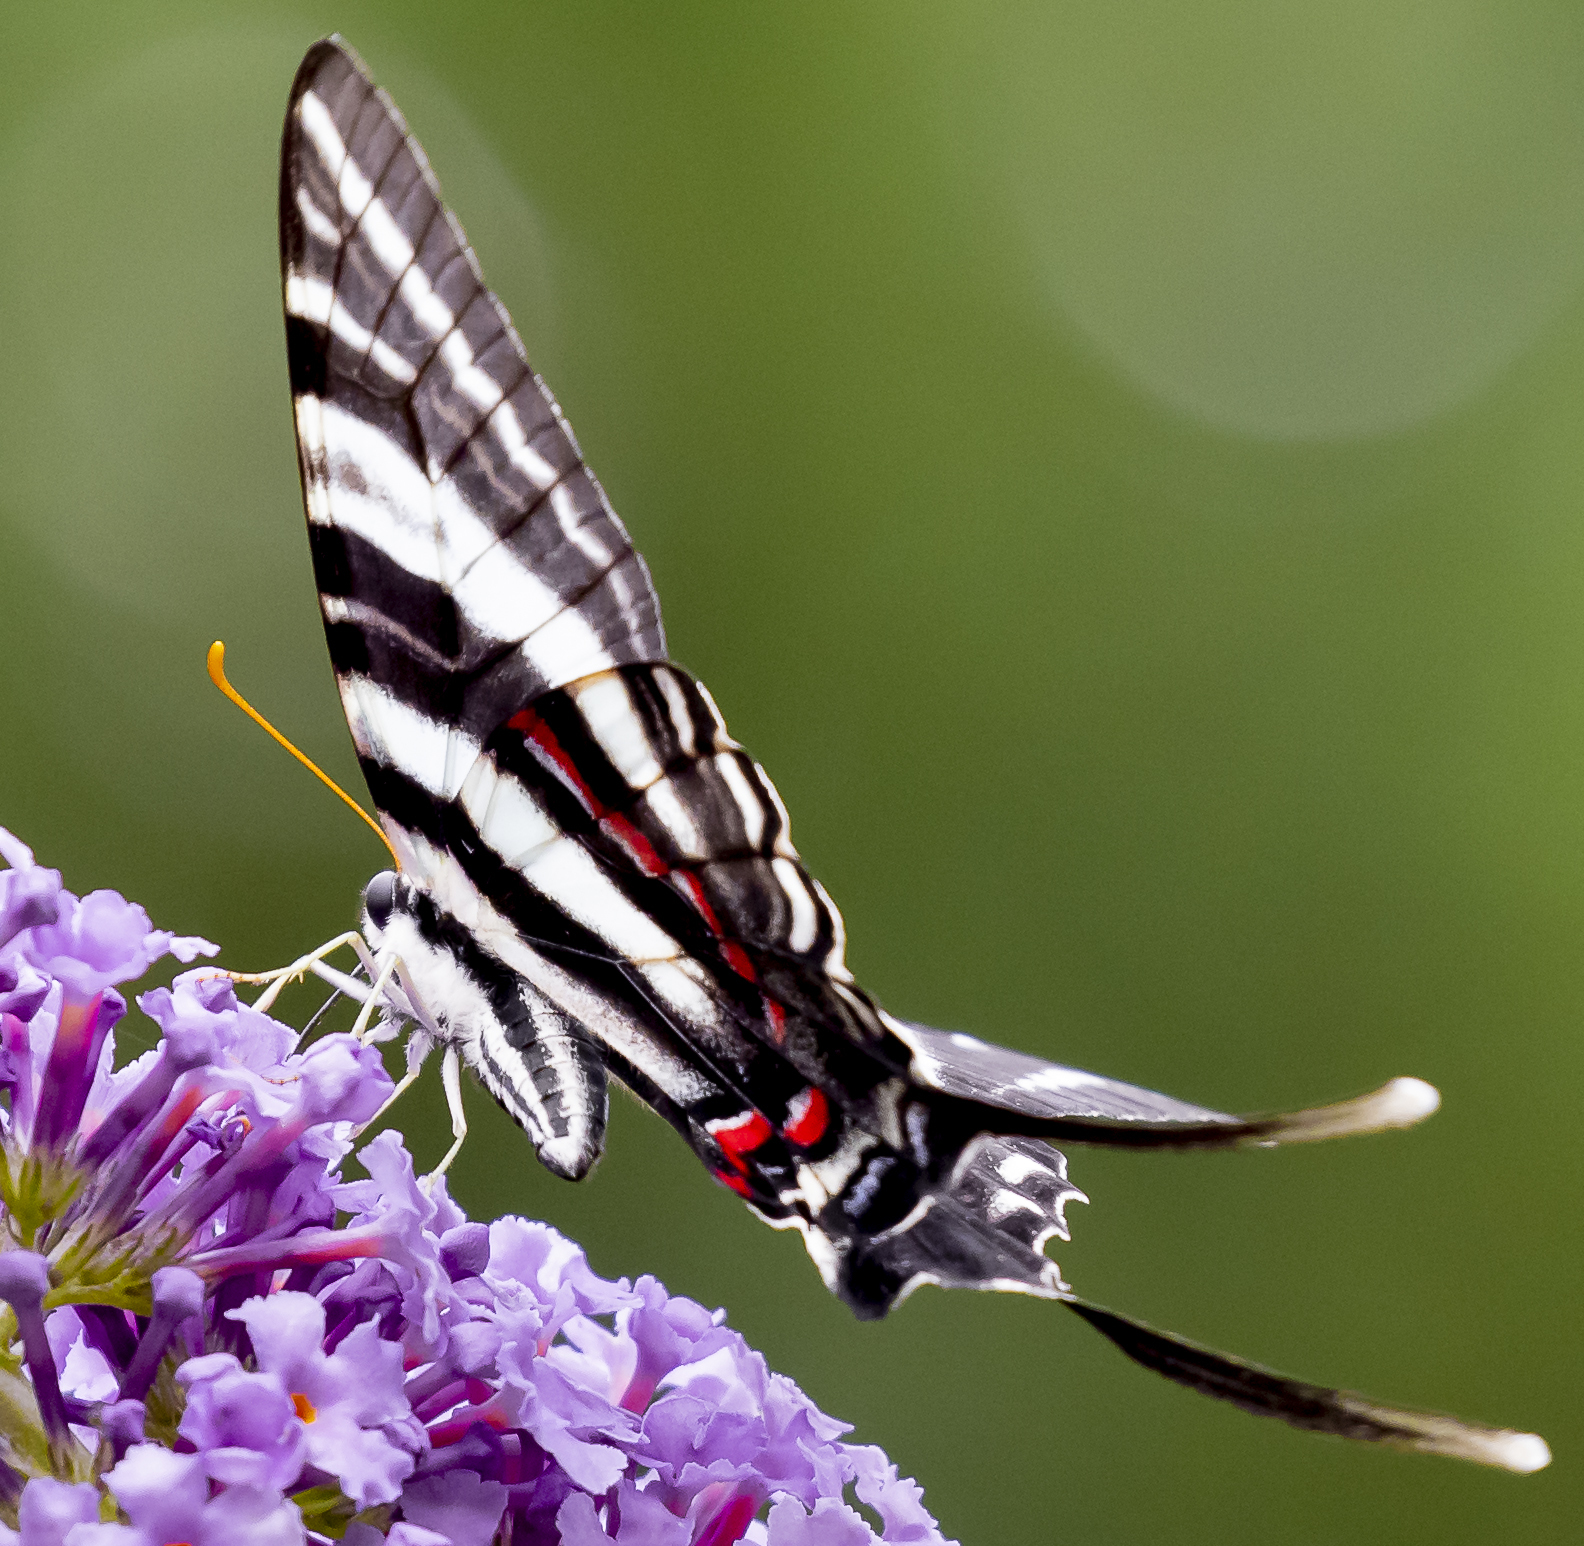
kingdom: Animalia
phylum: Arthropoda
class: Insecta
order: Lepidoptera
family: Papilionidae
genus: Protographium
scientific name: Protographium marcellus
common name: Zebra swallowtail
